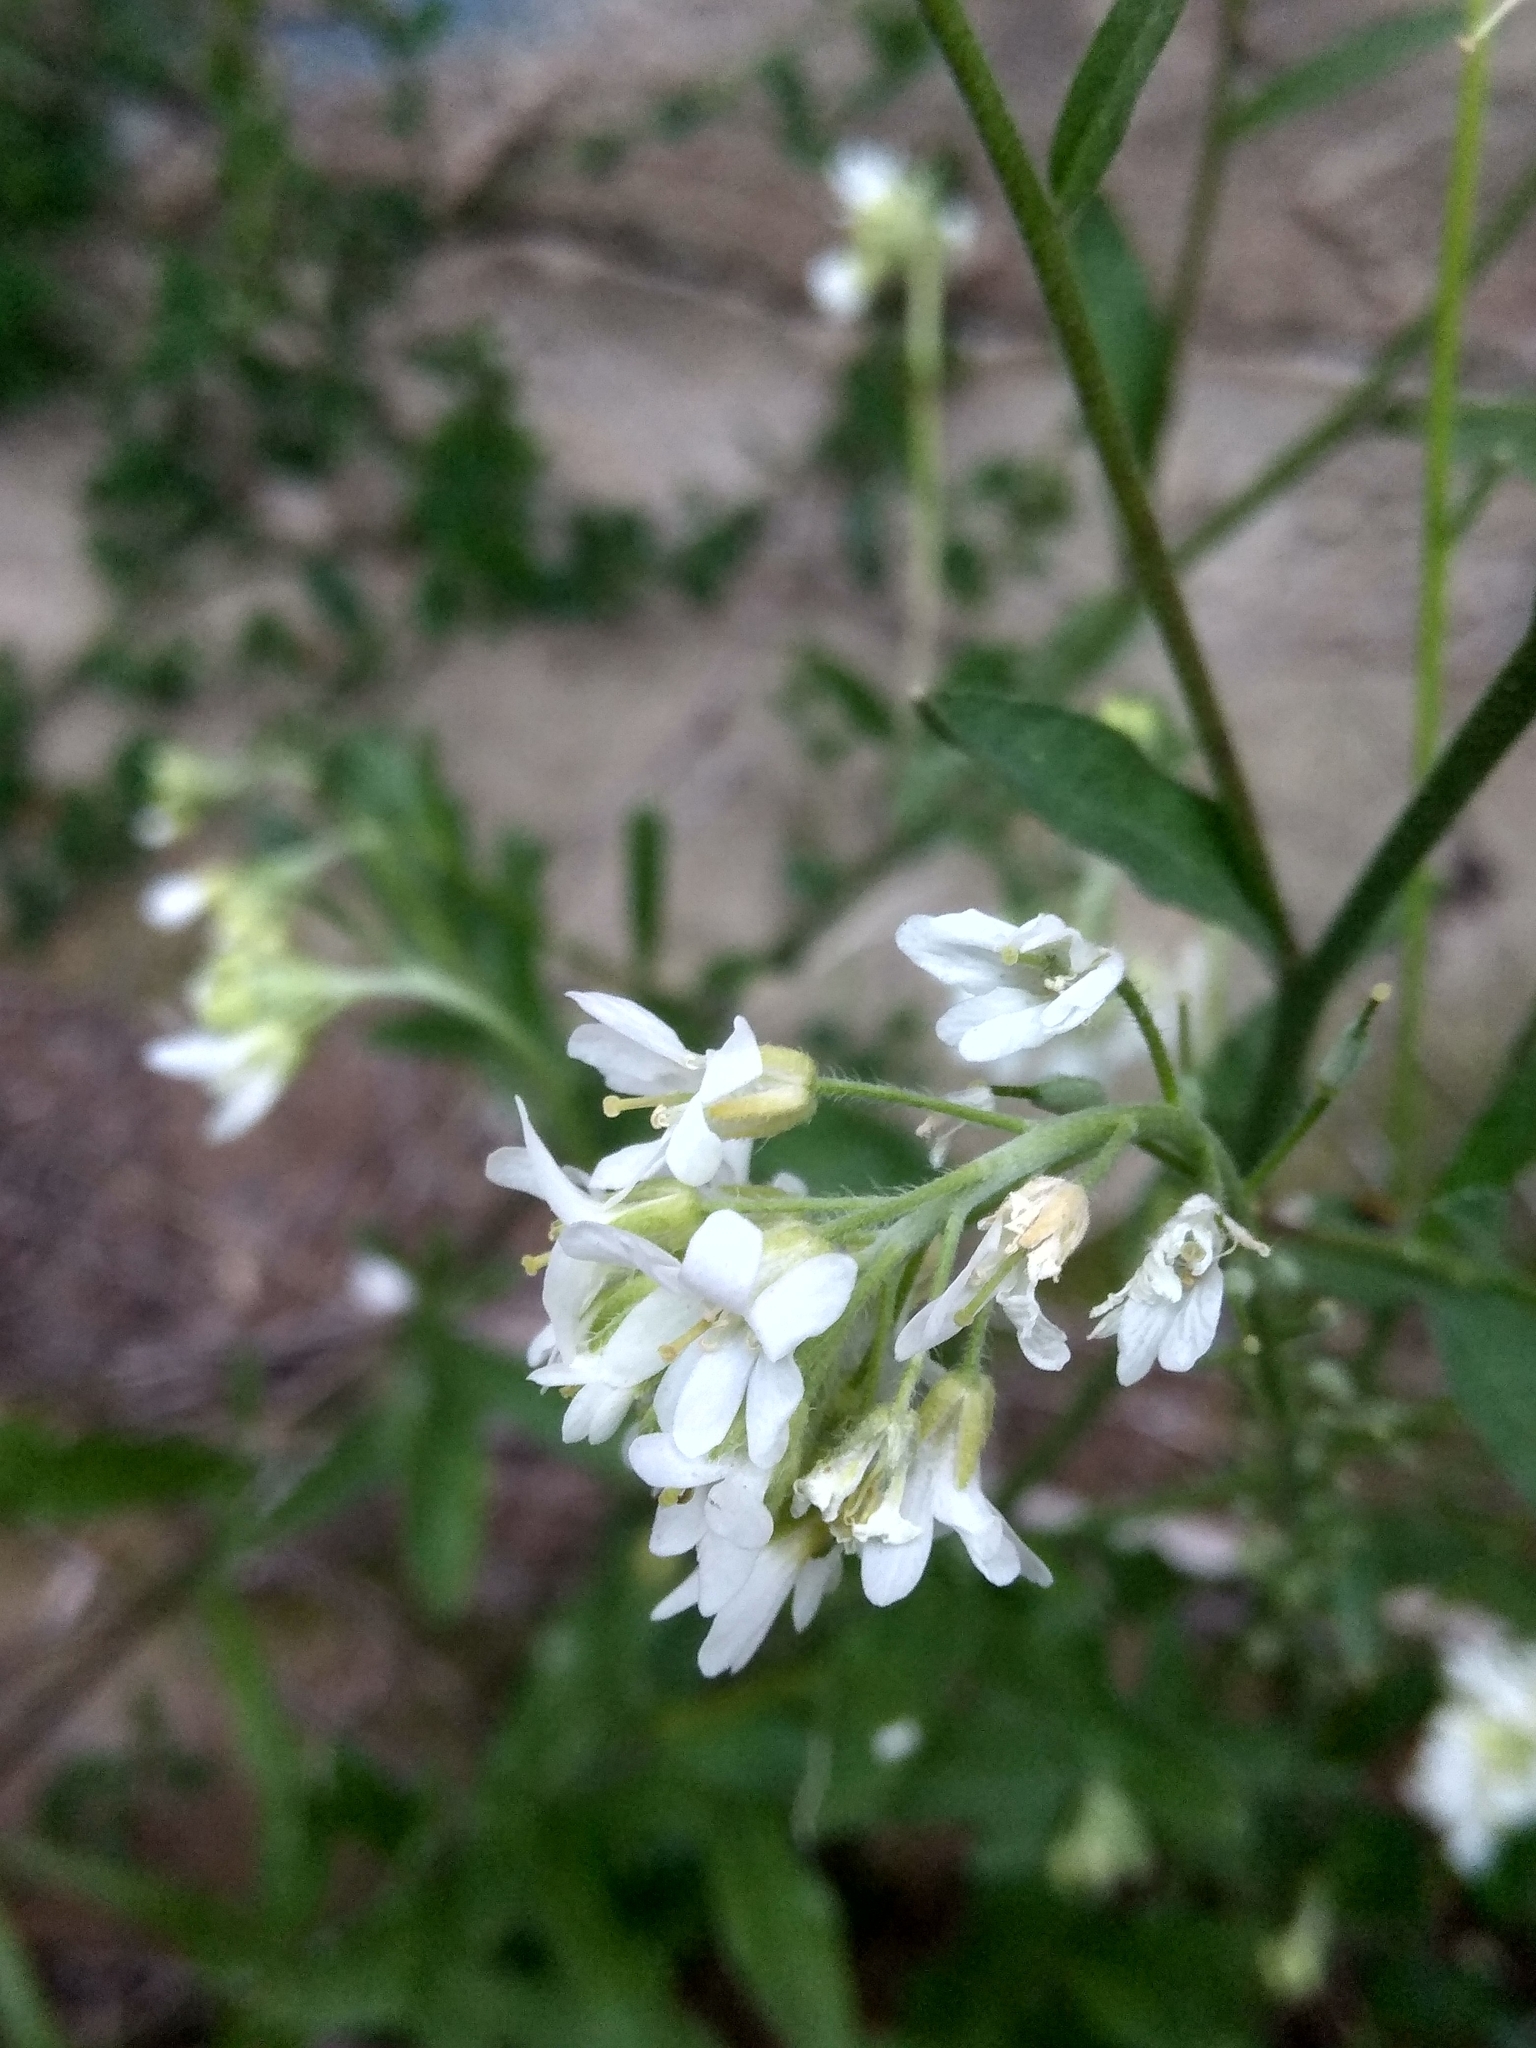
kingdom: Plantae
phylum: Tracheophyta
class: Magnoliopsida
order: Brassicales
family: Brassicaceae
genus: Berteroa
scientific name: Berteroa incana
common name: Hoary alison
